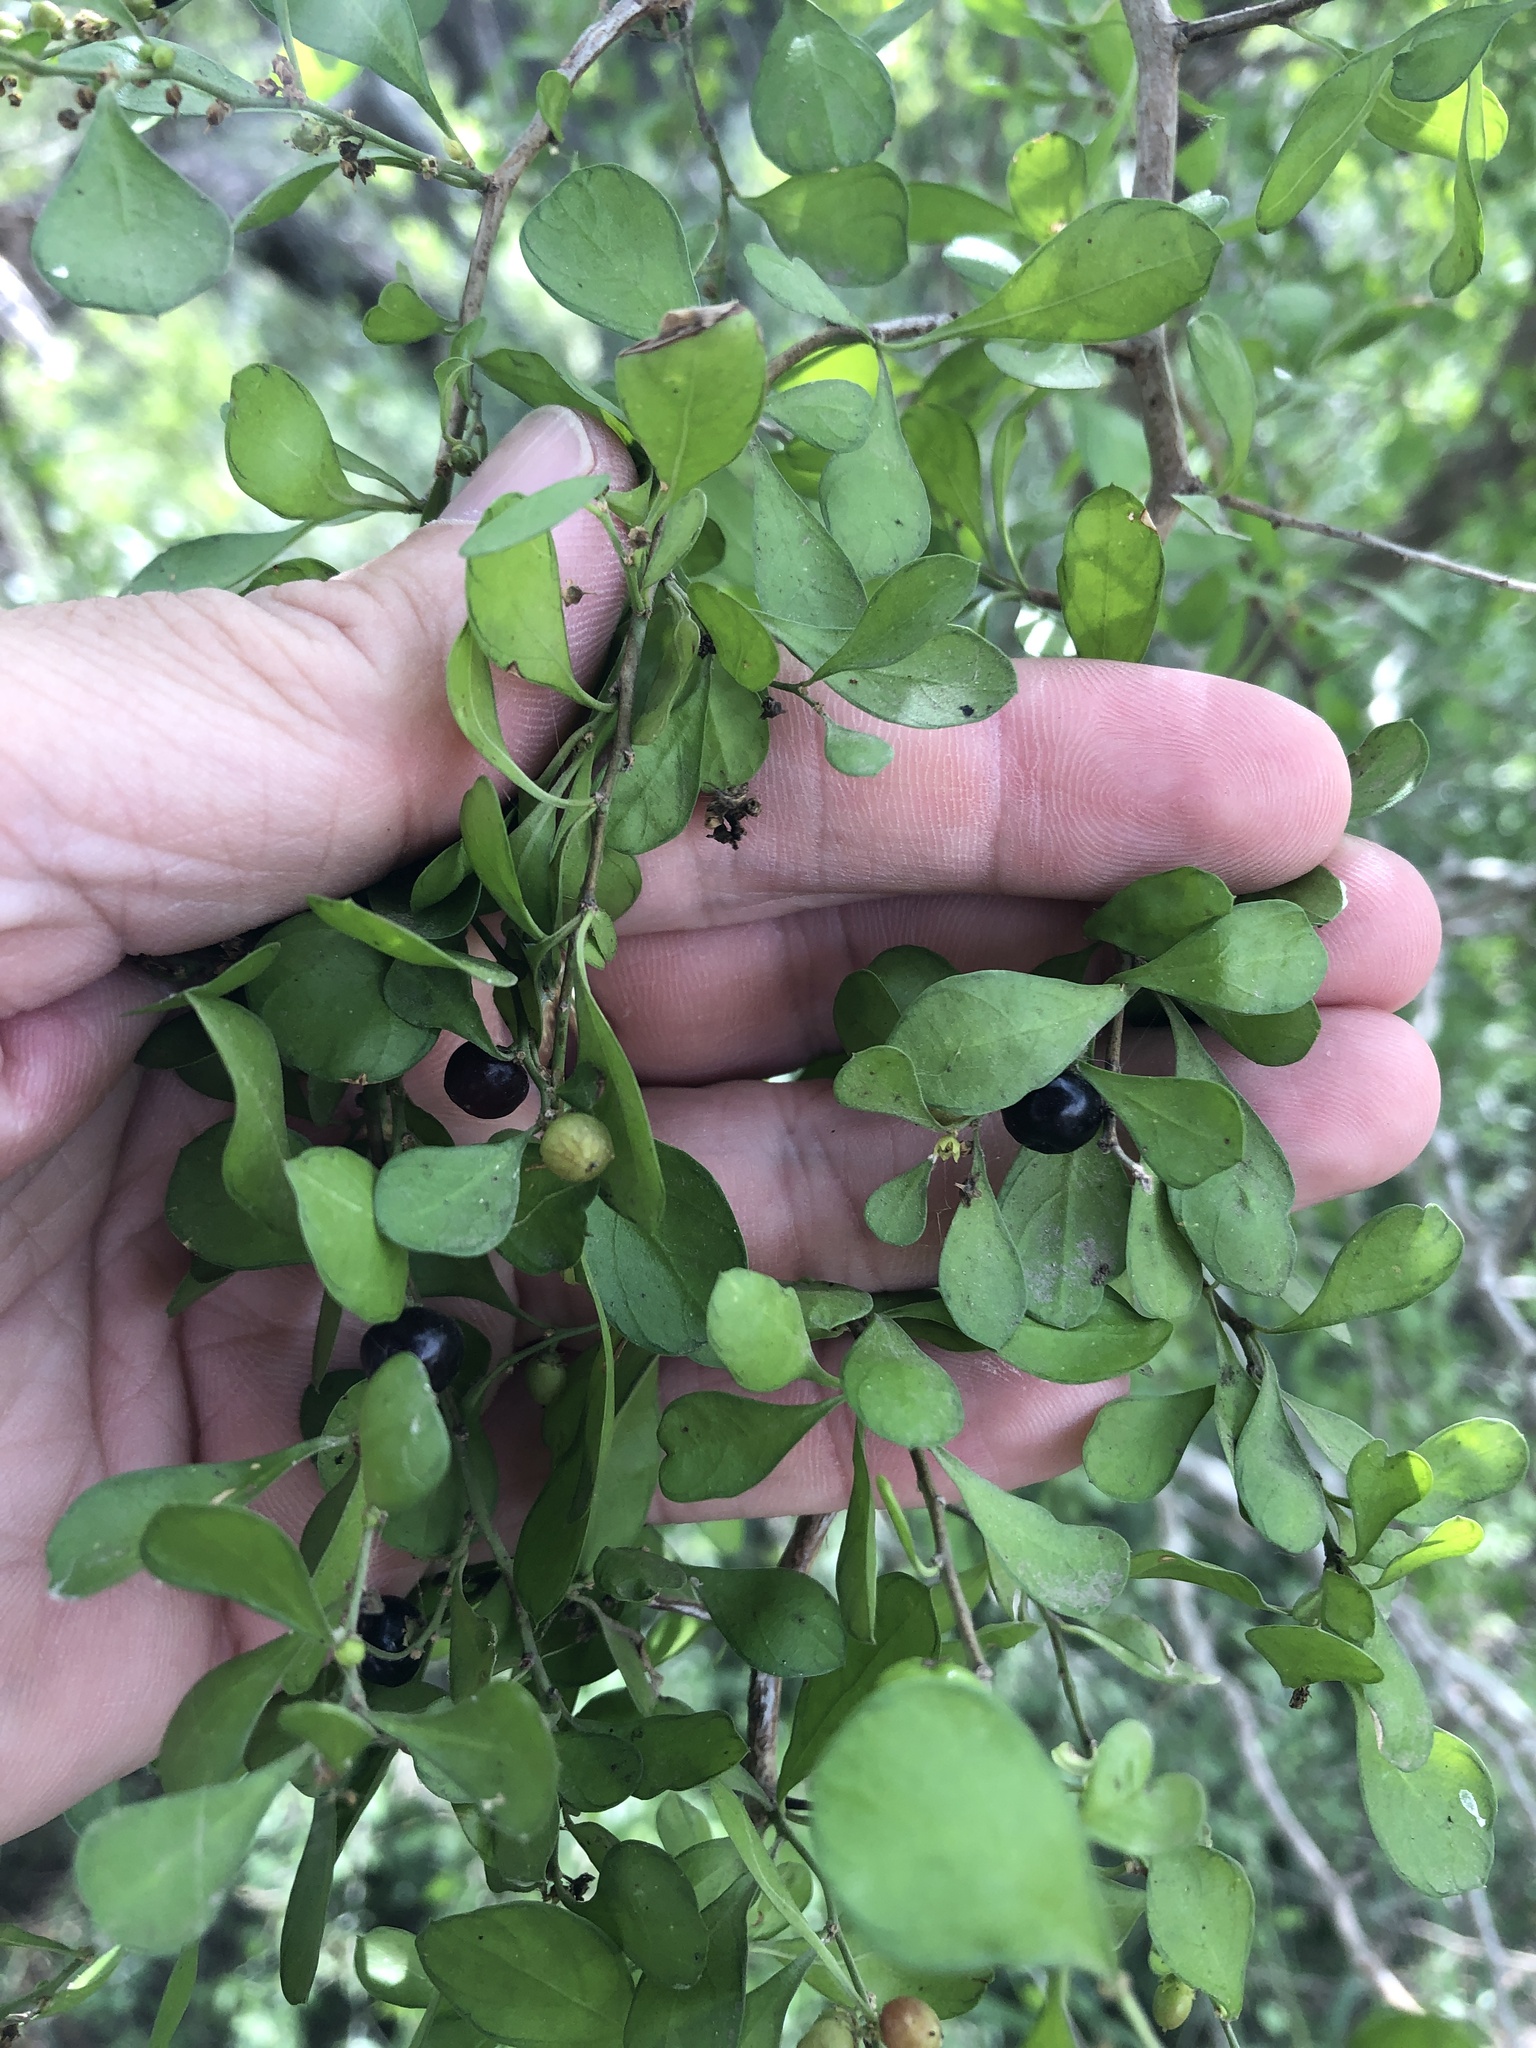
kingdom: Plantae
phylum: Tracheophyta
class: Magnoliopsida
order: Rosales
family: Rhamnaceae
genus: Condalia
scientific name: Condalia hookeri
